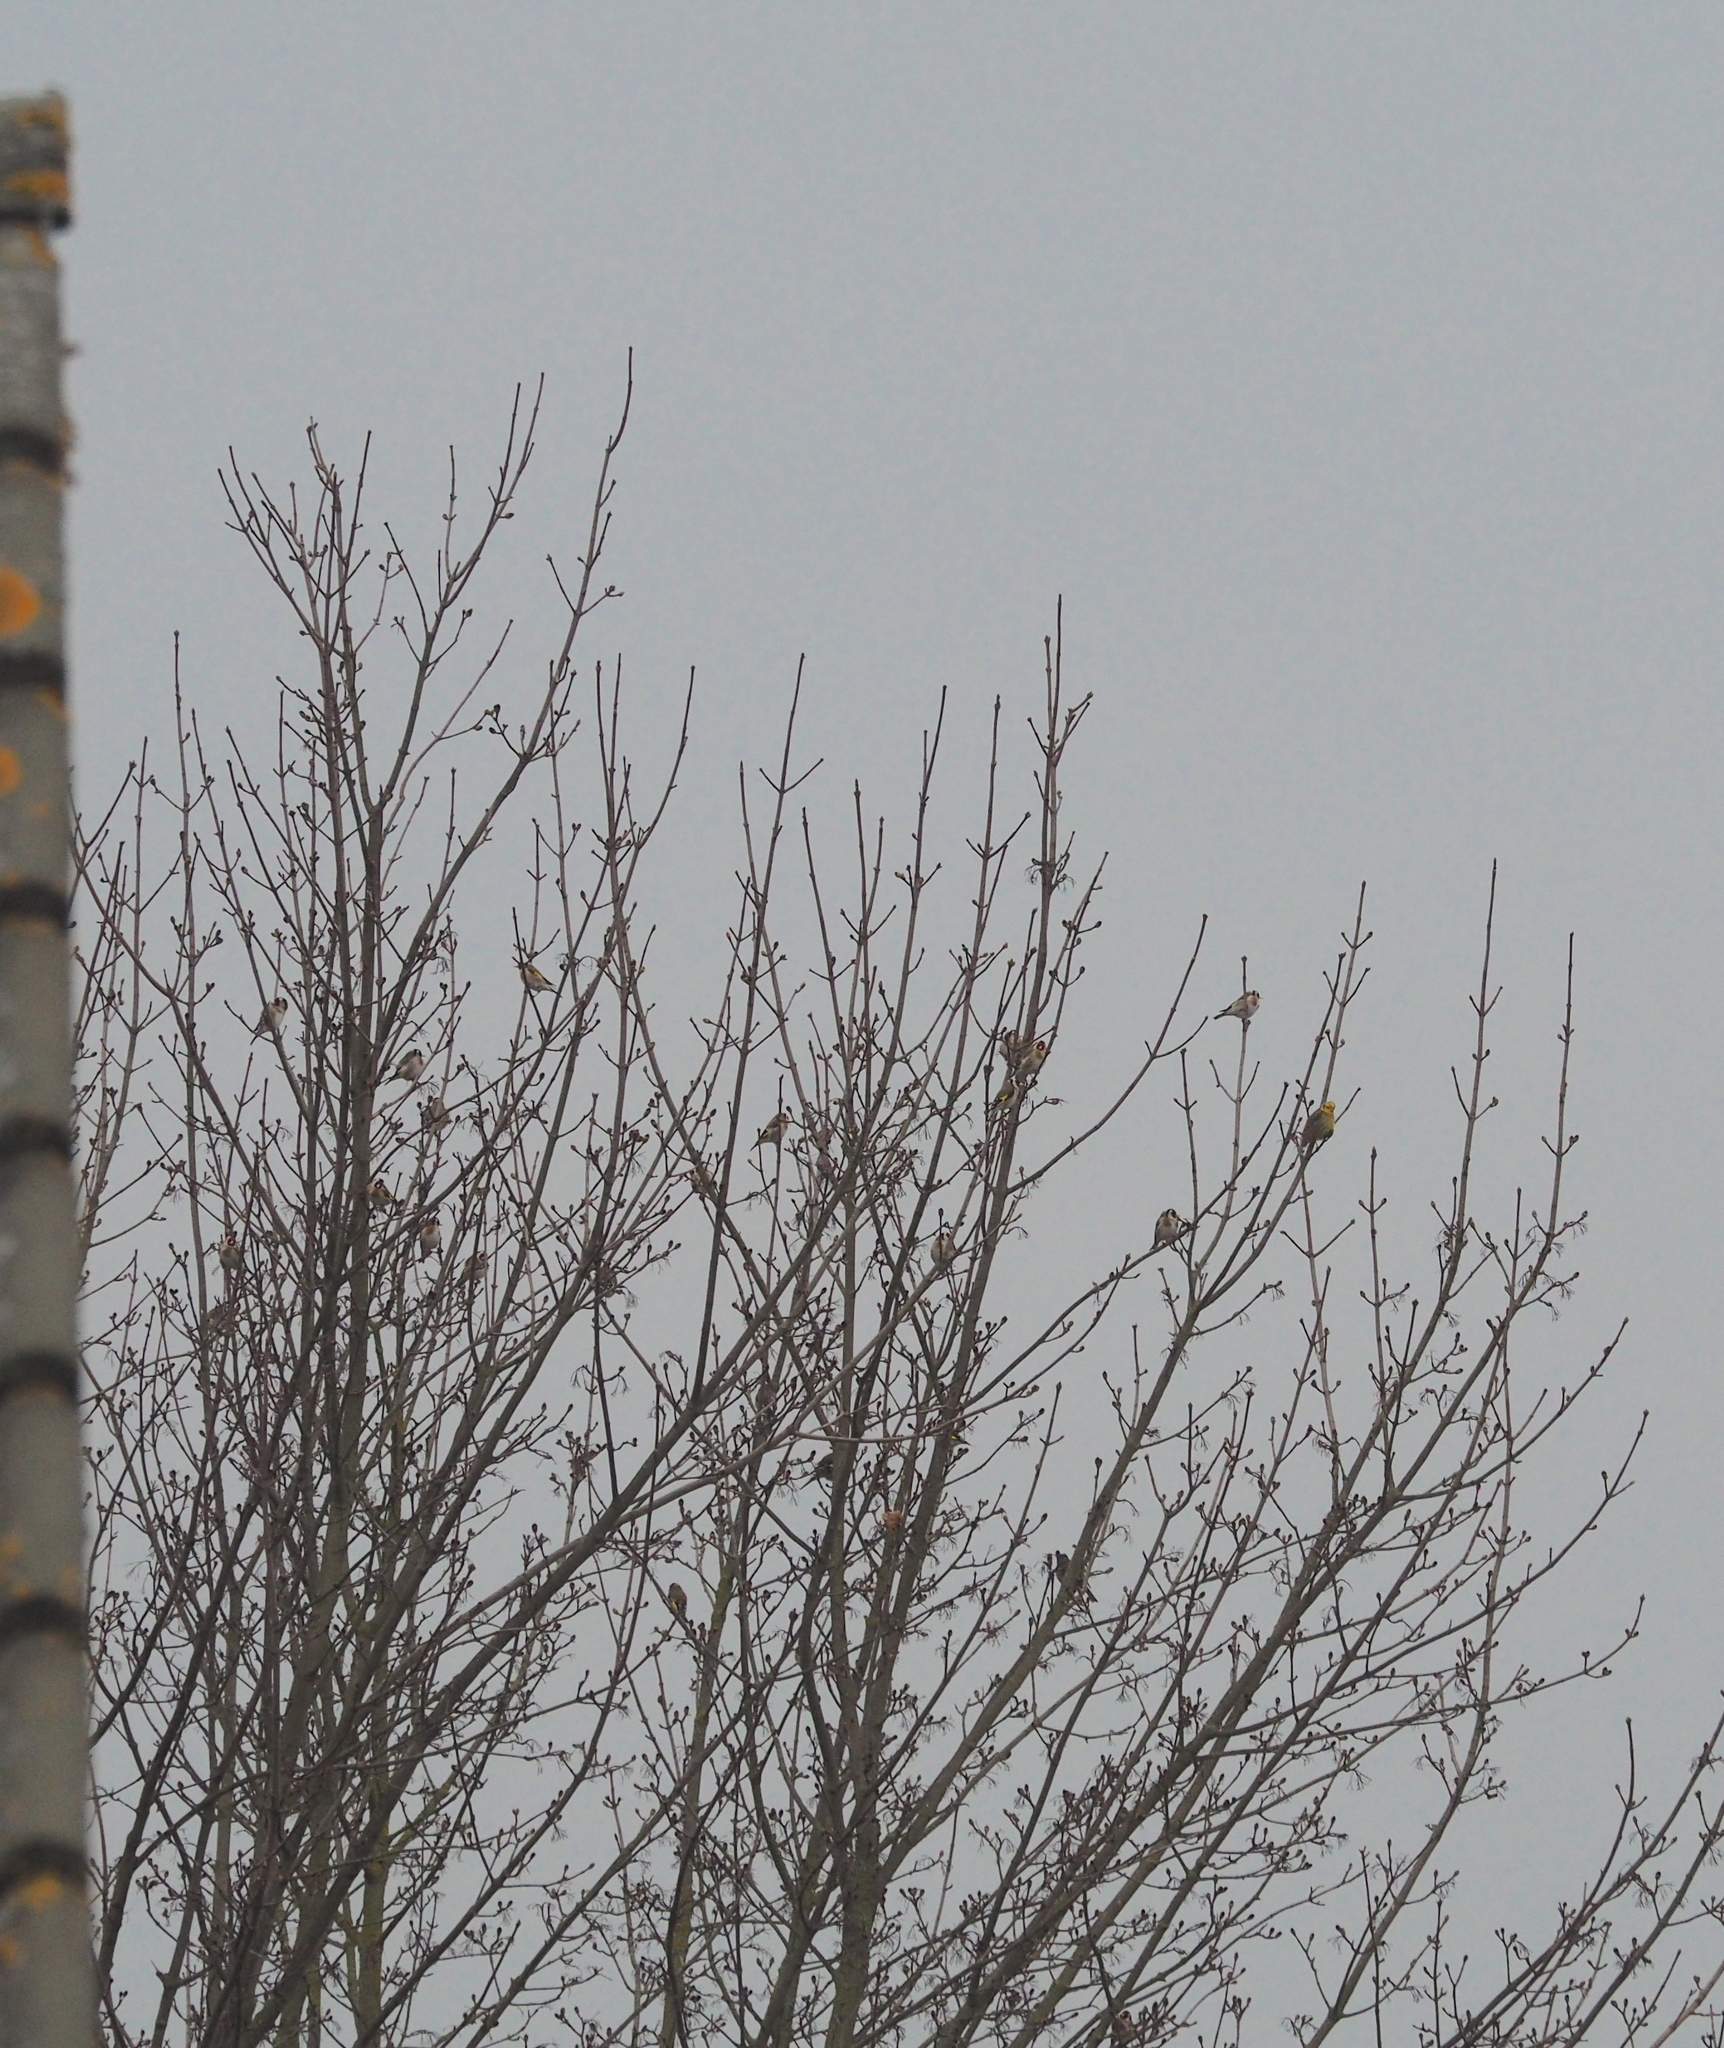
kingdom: Animalia
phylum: Chordata
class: Aves
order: Passeriformes
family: Emberizidae
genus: Emberiza
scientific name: Emberiza citrinella
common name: Yellowhammer
